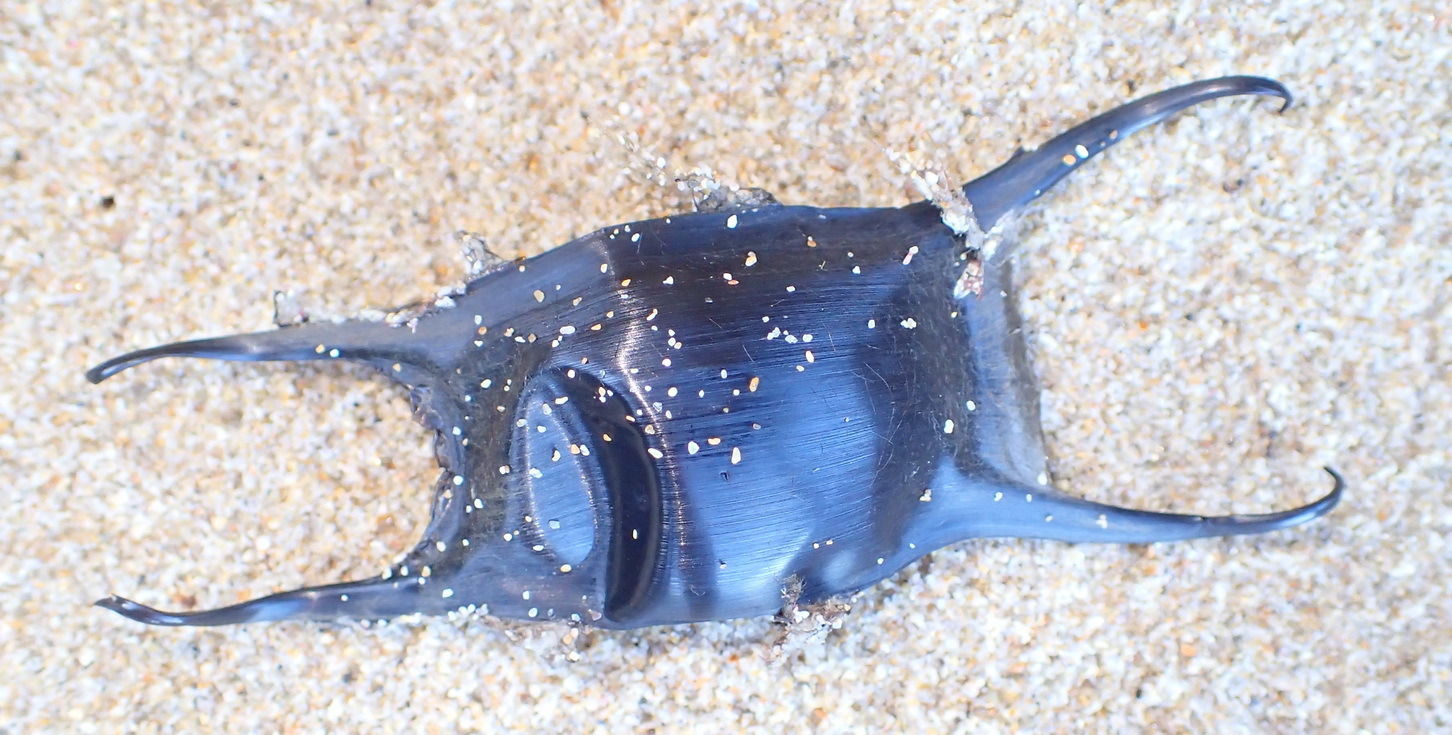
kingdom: Animalia
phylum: Chordata
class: Elasmobranchii
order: Rajiformes
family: Rajidae
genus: Raja
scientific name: Raja ocellifera
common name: Twineye skate
